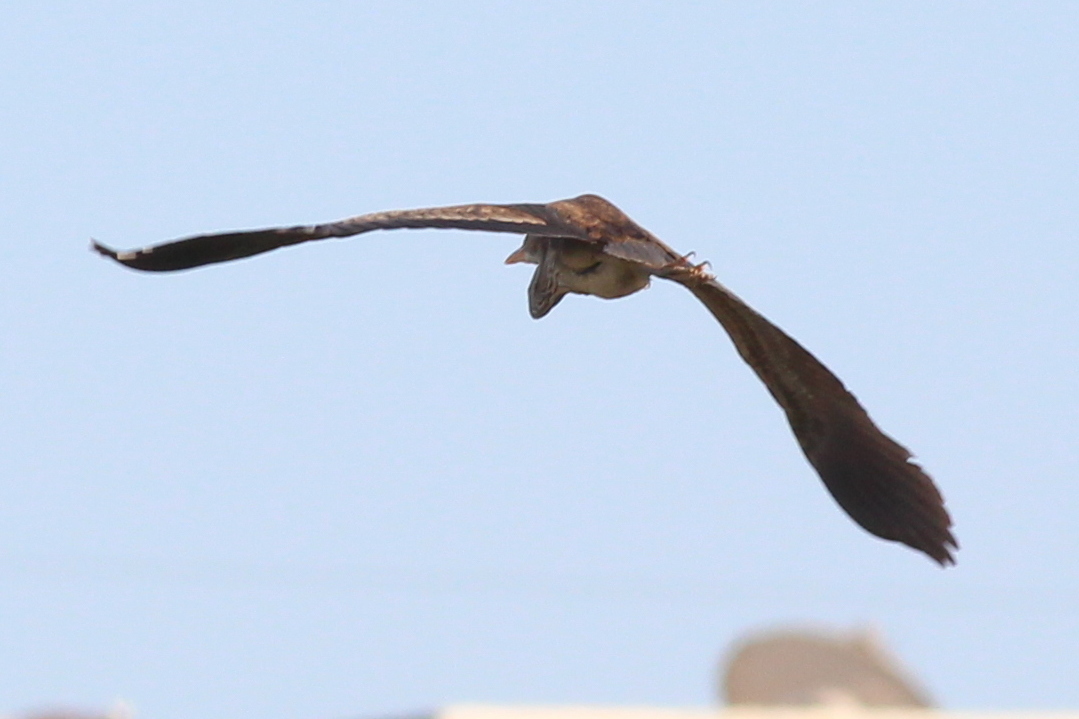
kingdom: Animalia
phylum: Chordata
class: Aves
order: Pelecaniformes
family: Ardeidae
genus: Ardea
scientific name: Ardea purpurea
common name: Purple heron
